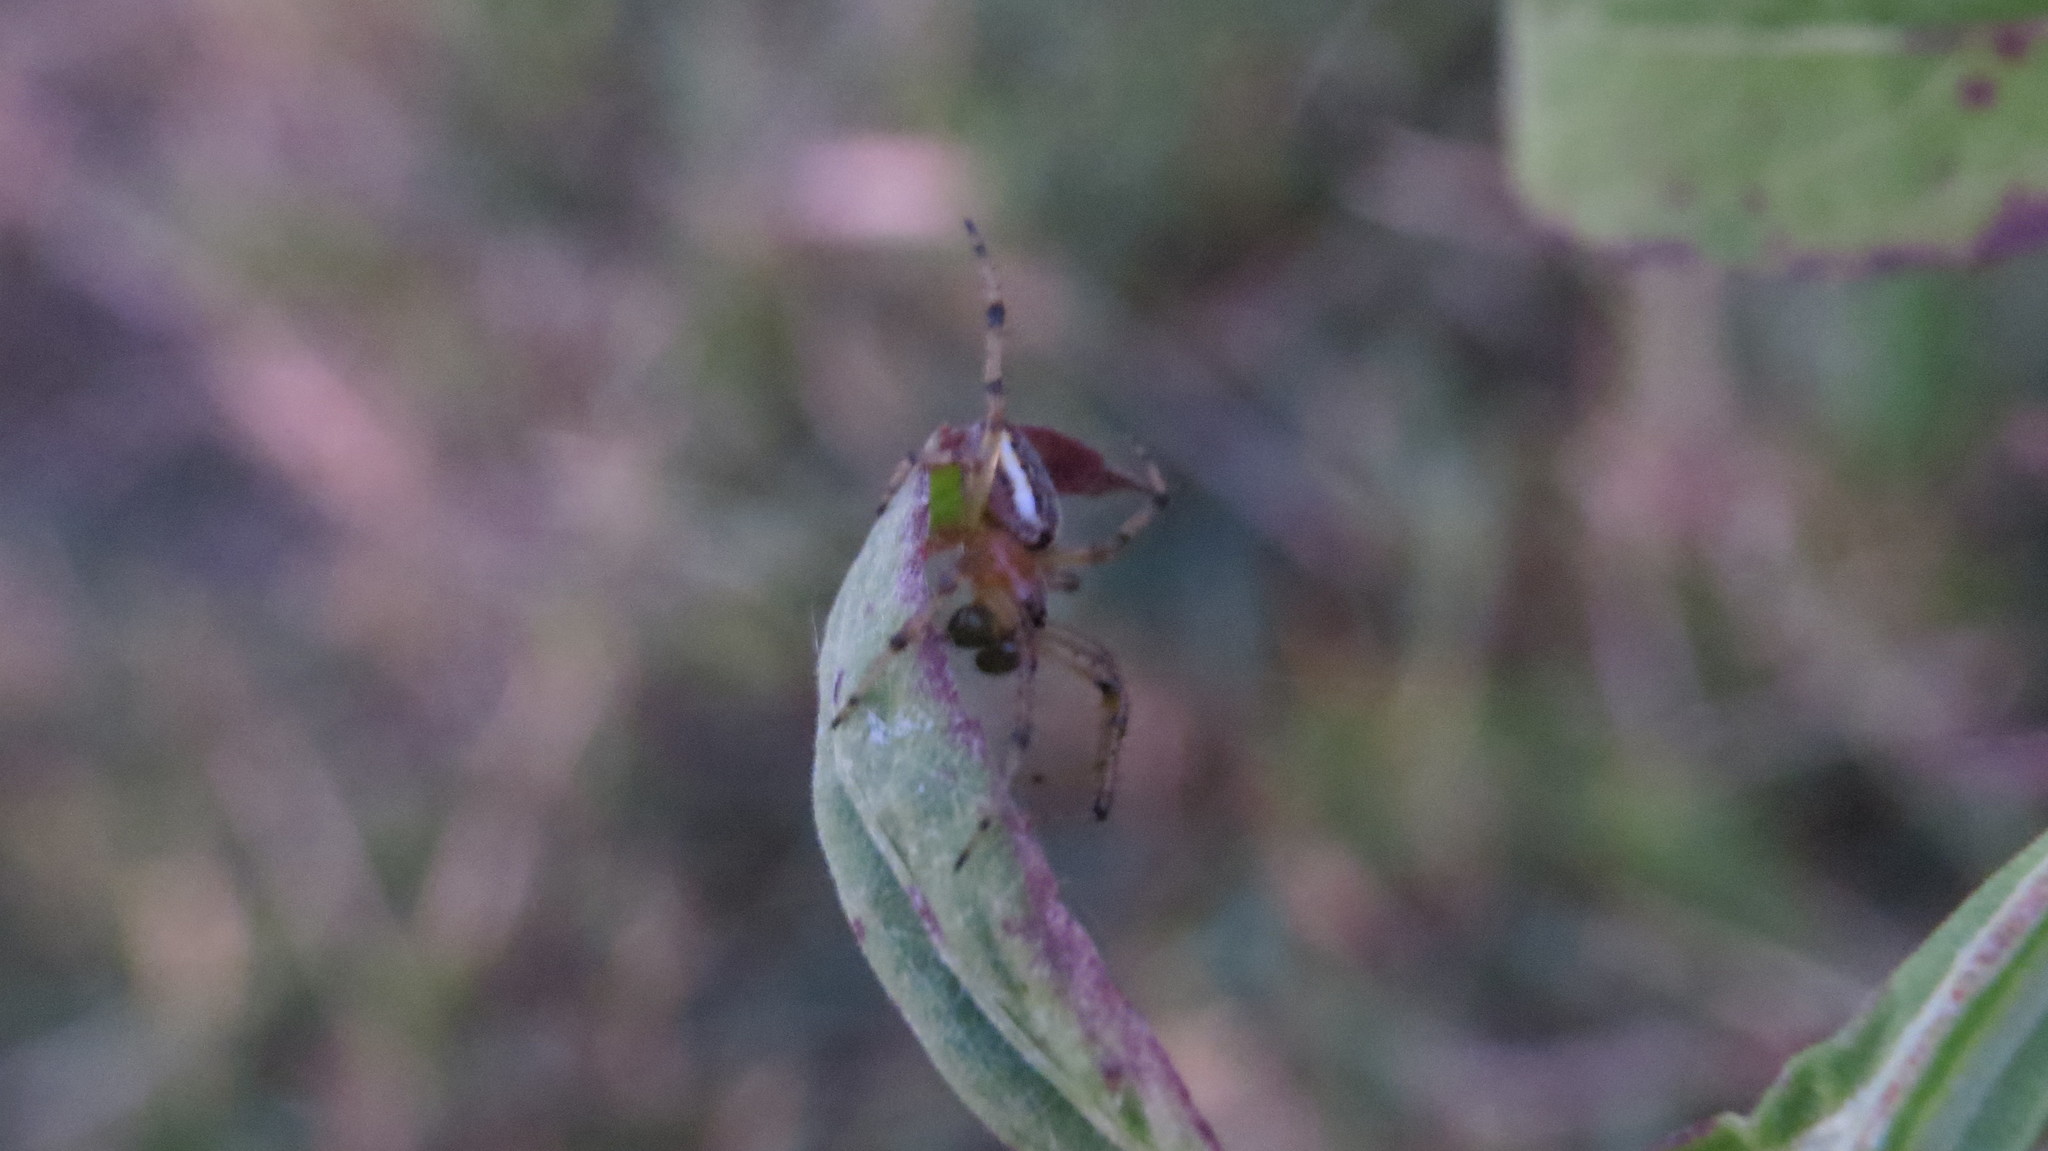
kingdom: Animalia
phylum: Arthropoda
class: Arachnida
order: Araneae
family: Araneidae
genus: Alpaida
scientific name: Alpaida veniliae
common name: Orb weavers
